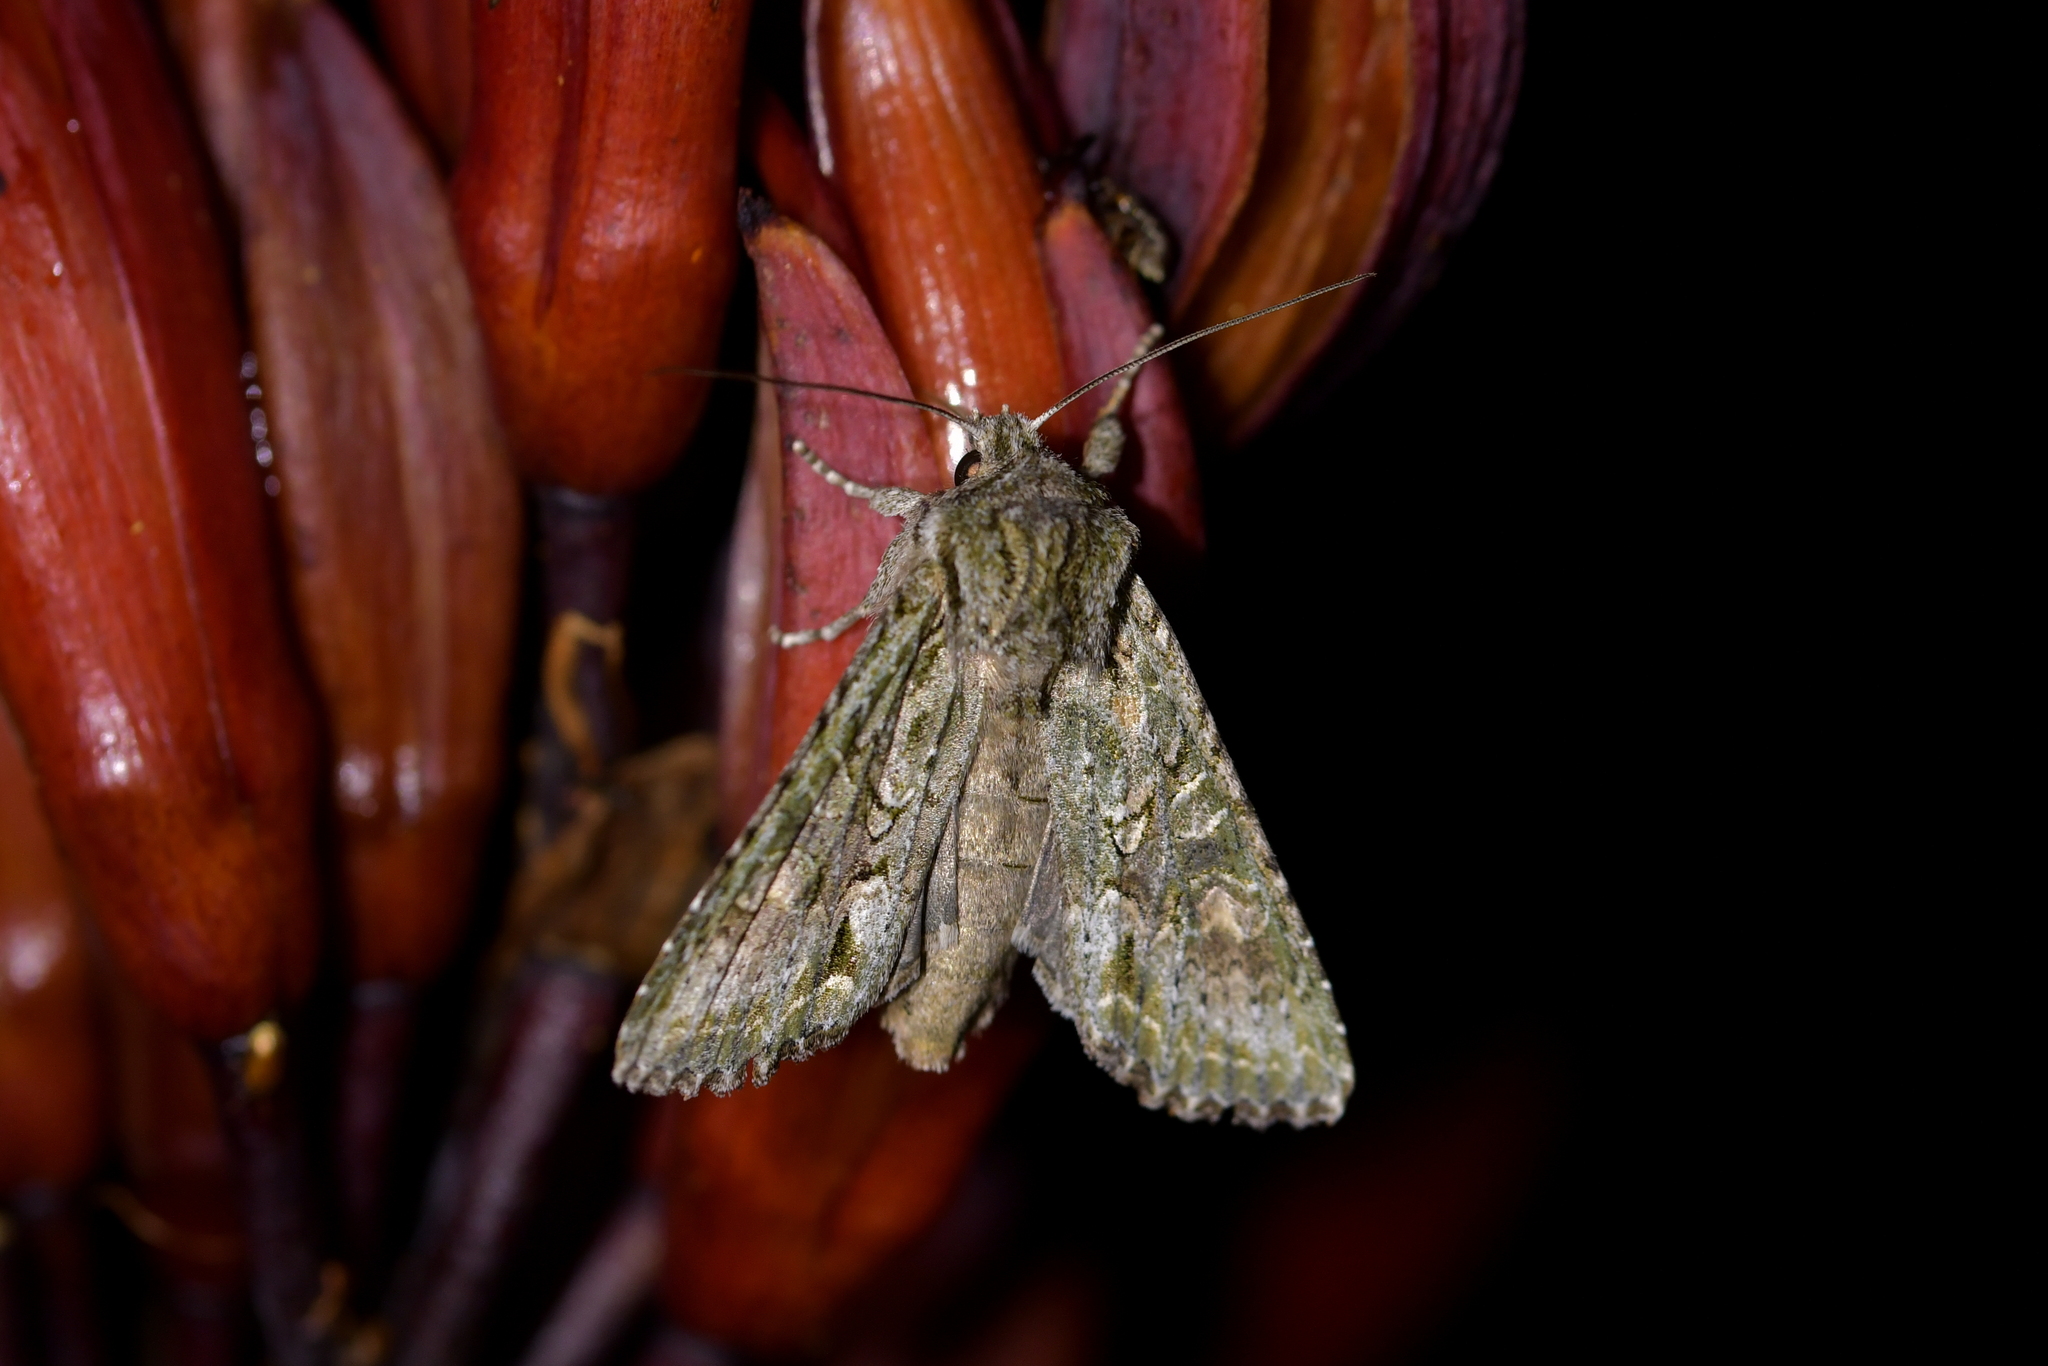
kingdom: Animalia
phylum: Arthropoda
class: Insecta
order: Lepidoptera
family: Noctuidae
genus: Ichneutica
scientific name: Ichneutica mutans
